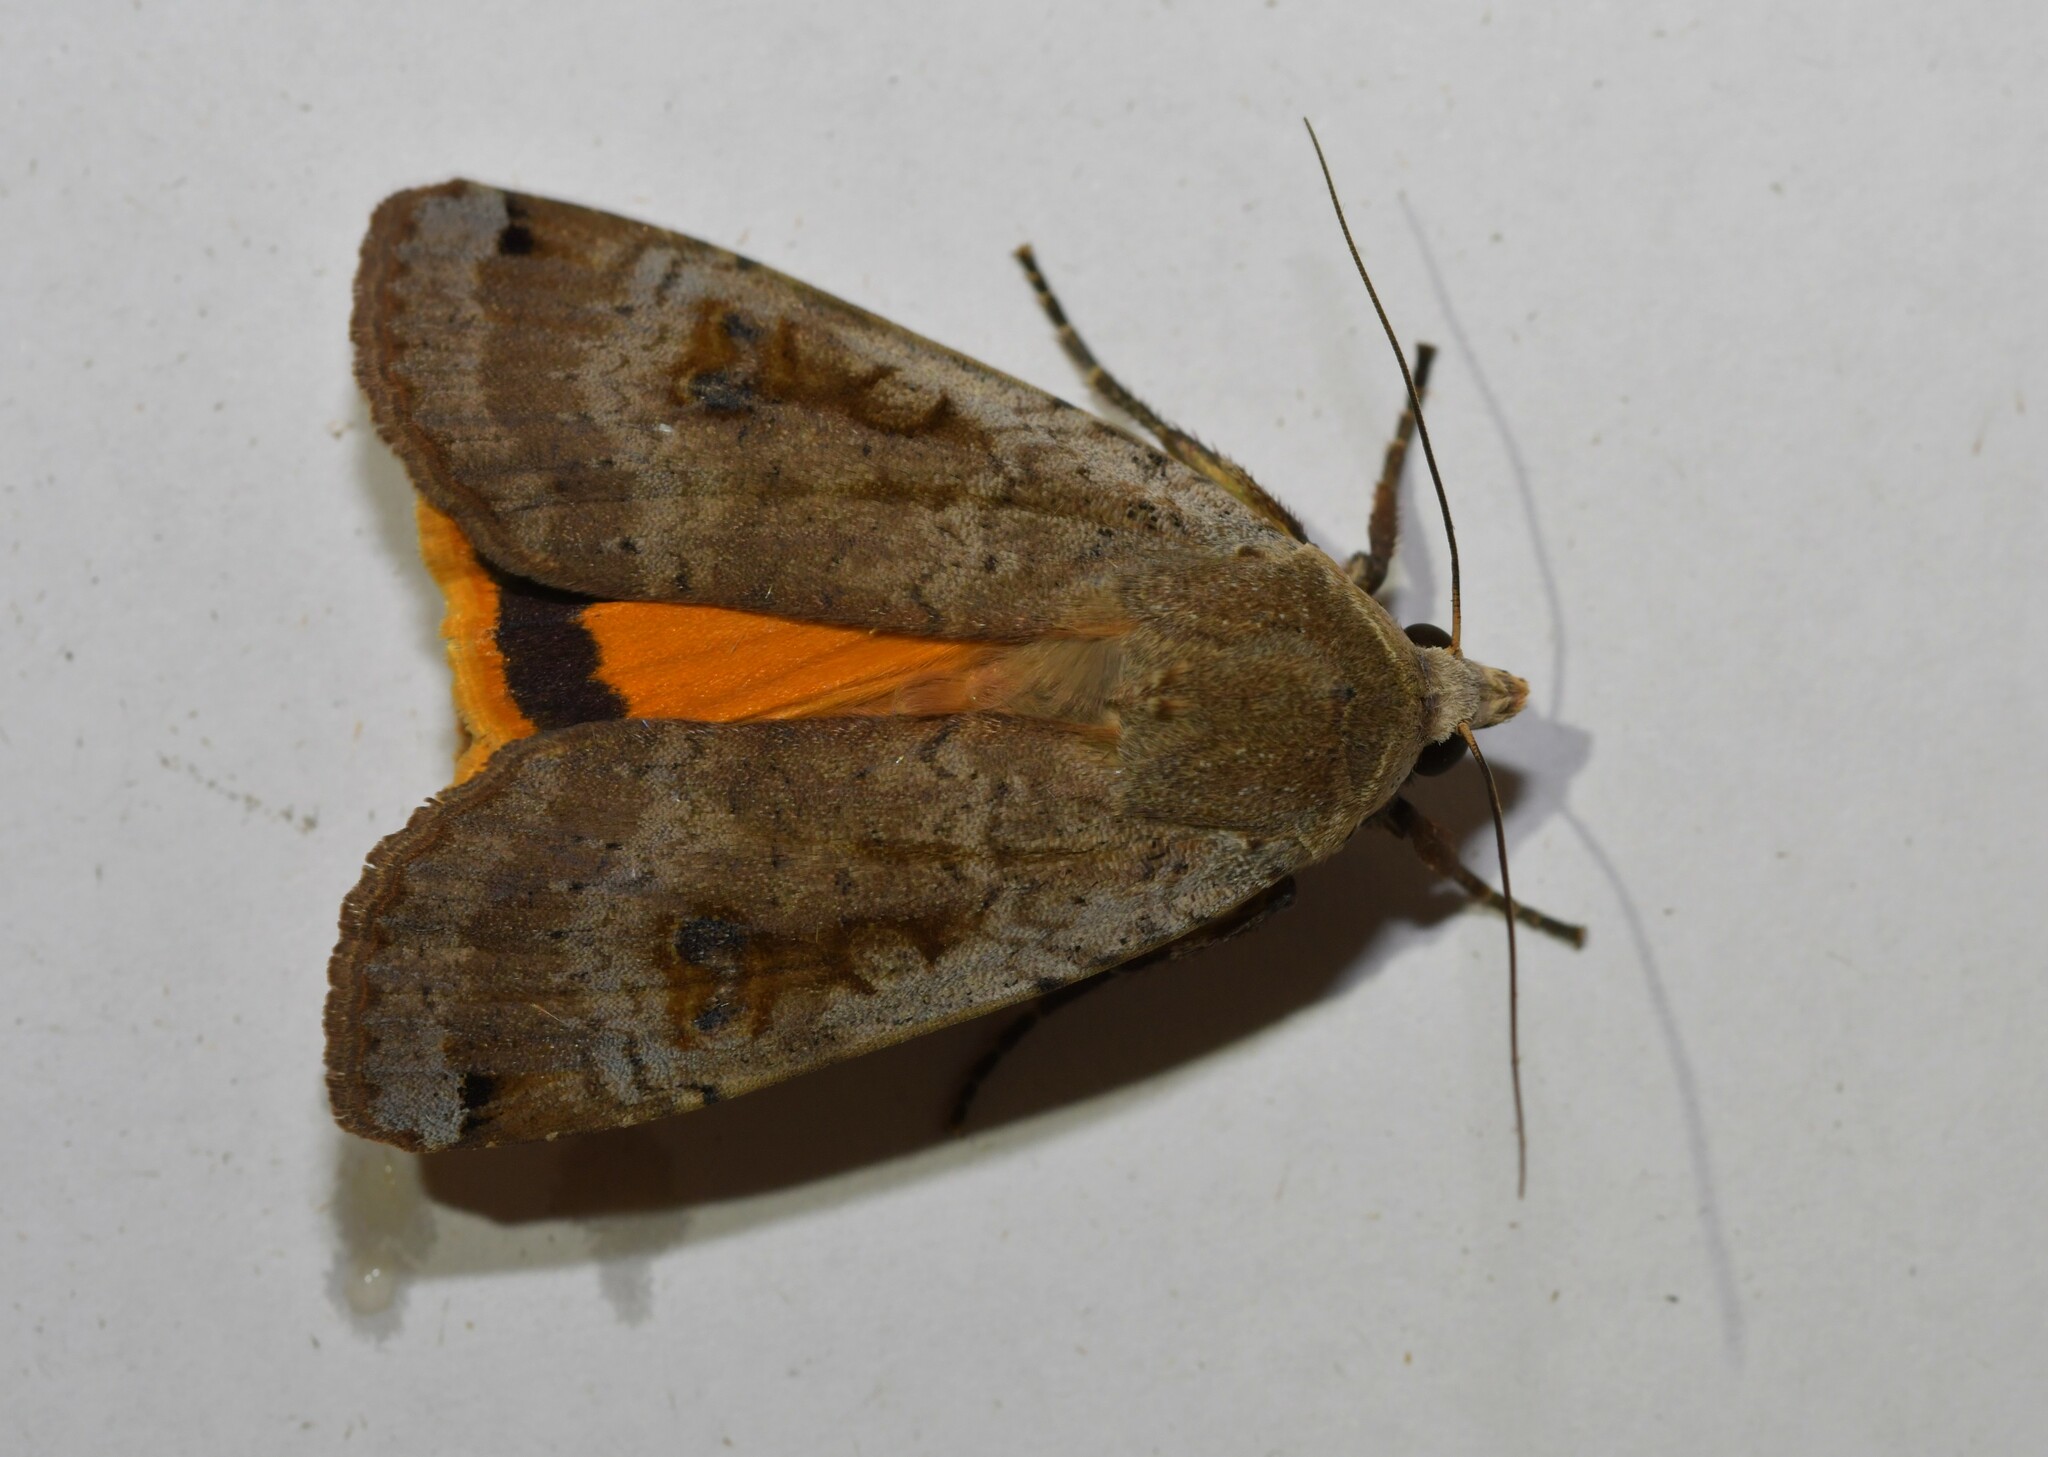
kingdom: Animalia
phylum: Arthropoda
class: Insecta
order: Lepidoptera
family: Noctuidae
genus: Noctua
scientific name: Noctua pronuba
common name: Large yellow underwing
